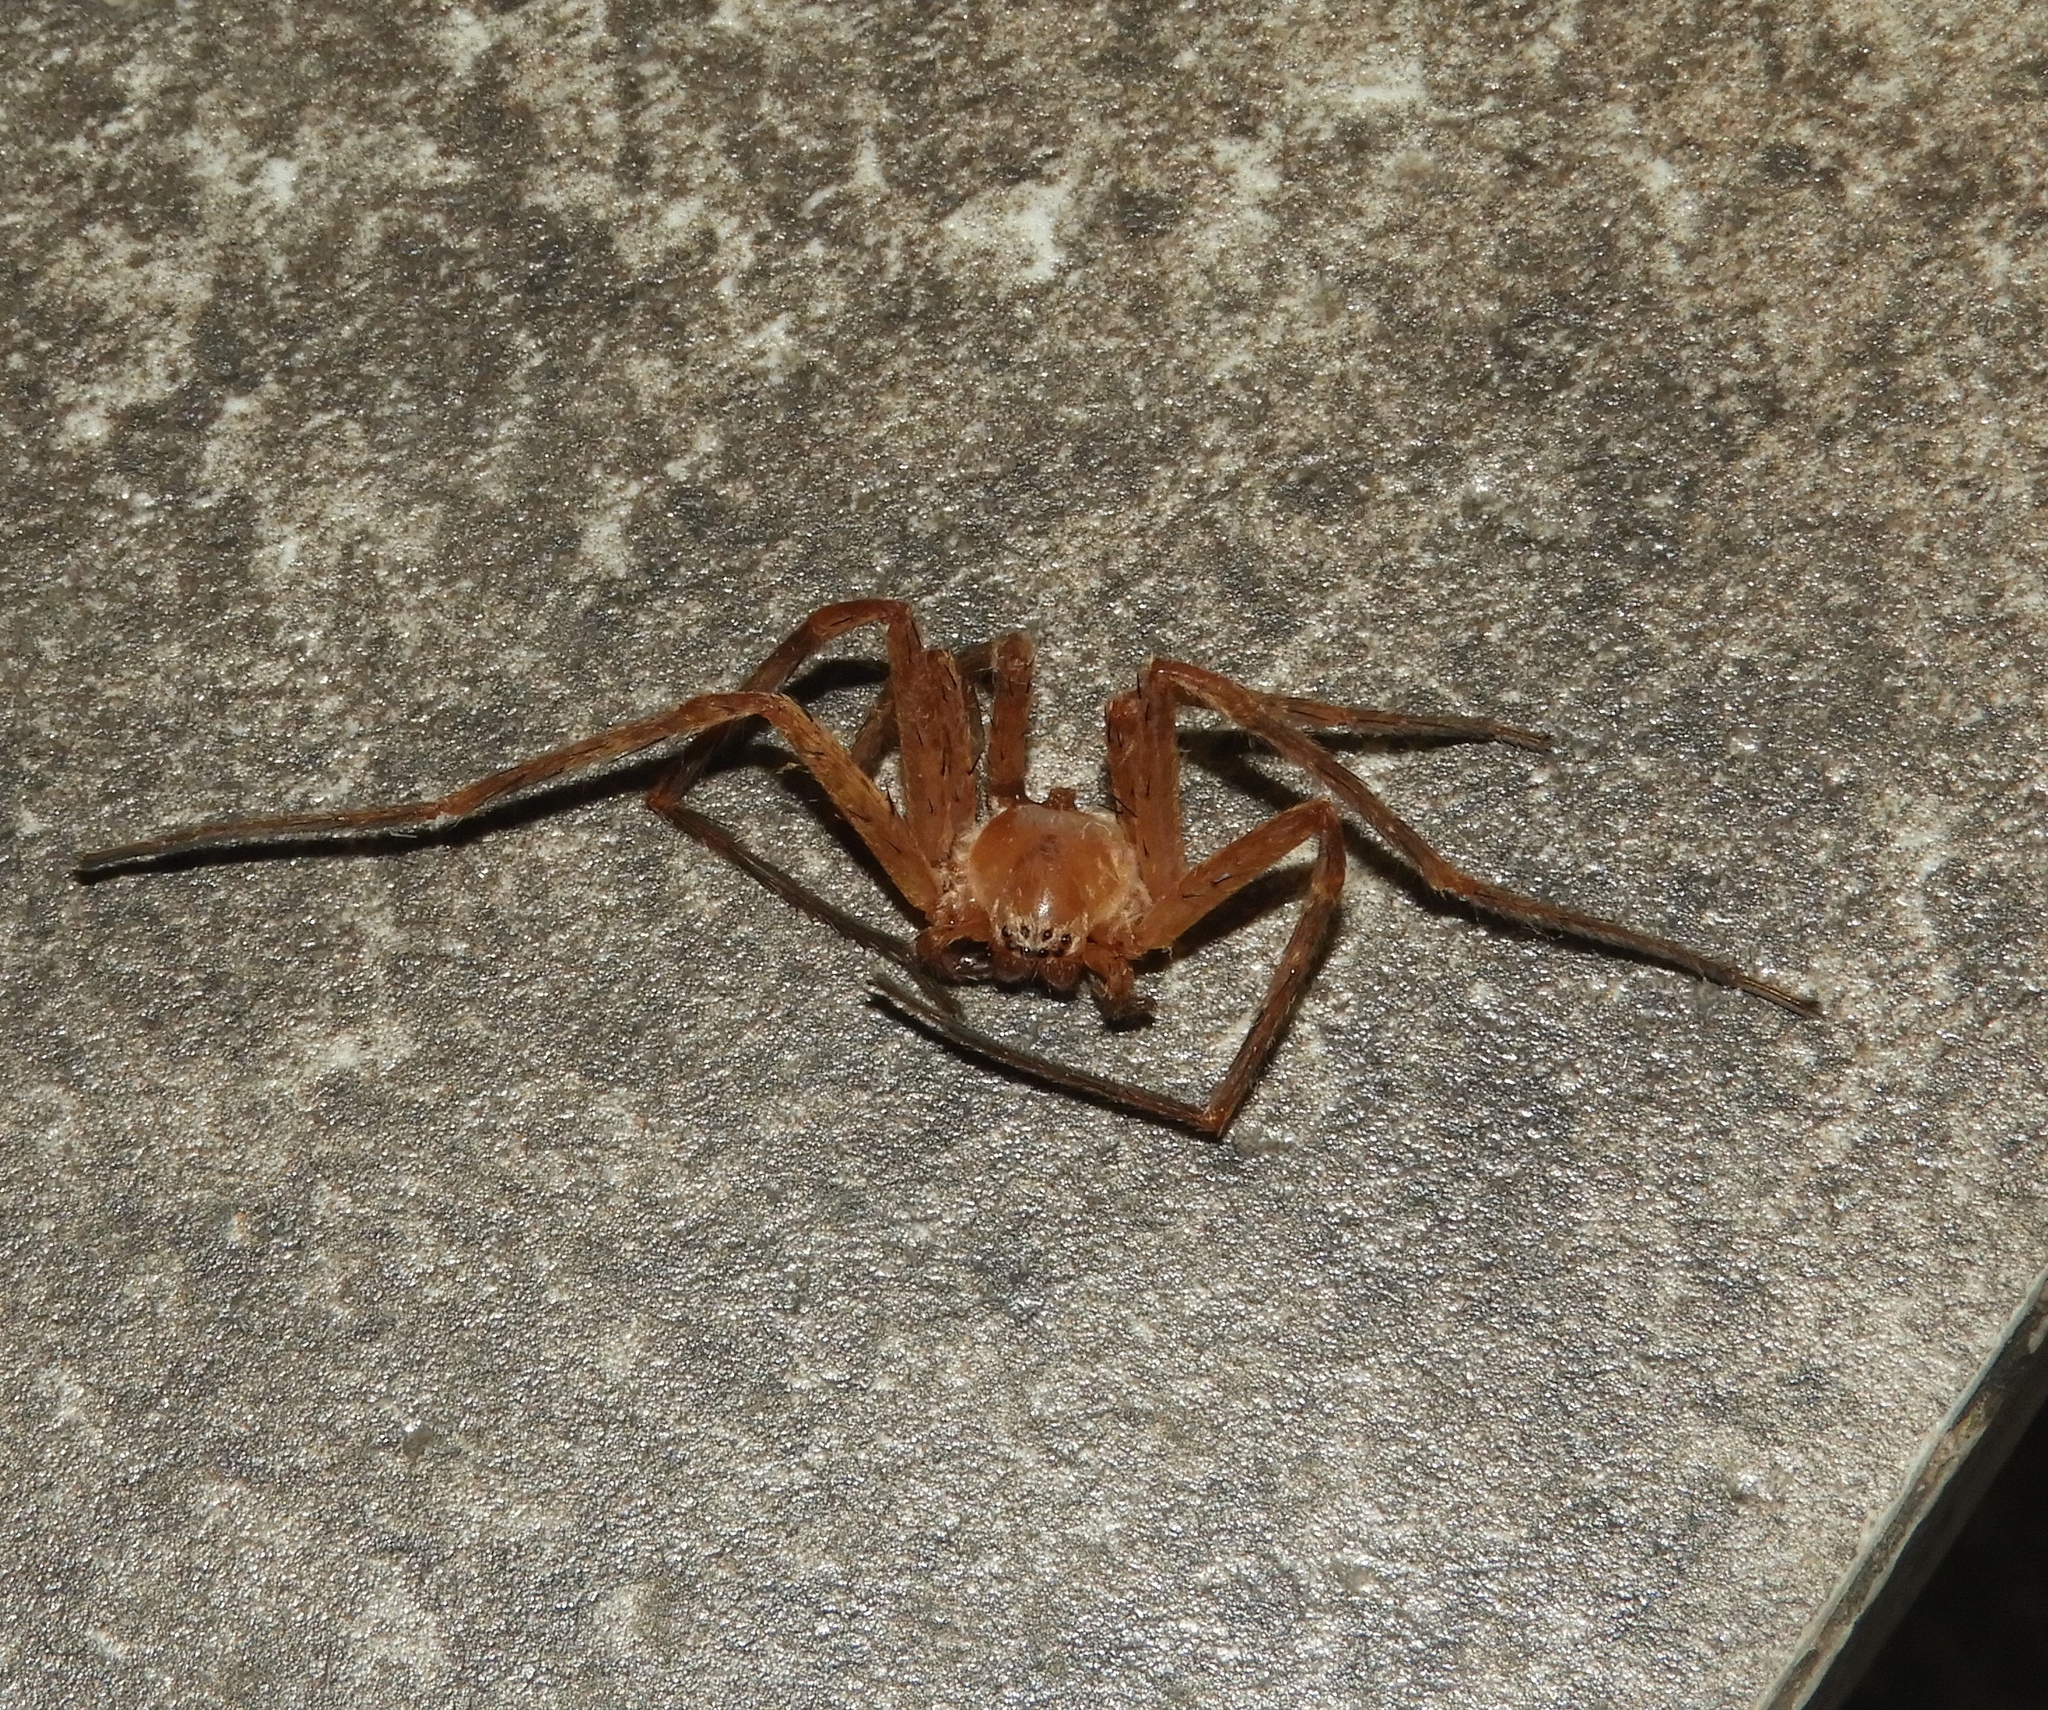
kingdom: Animalia
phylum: Arthropoda
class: Arachnida
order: Araneae
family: Sparassidae
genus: Curicaberis
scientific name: Curicaberis culiacan
